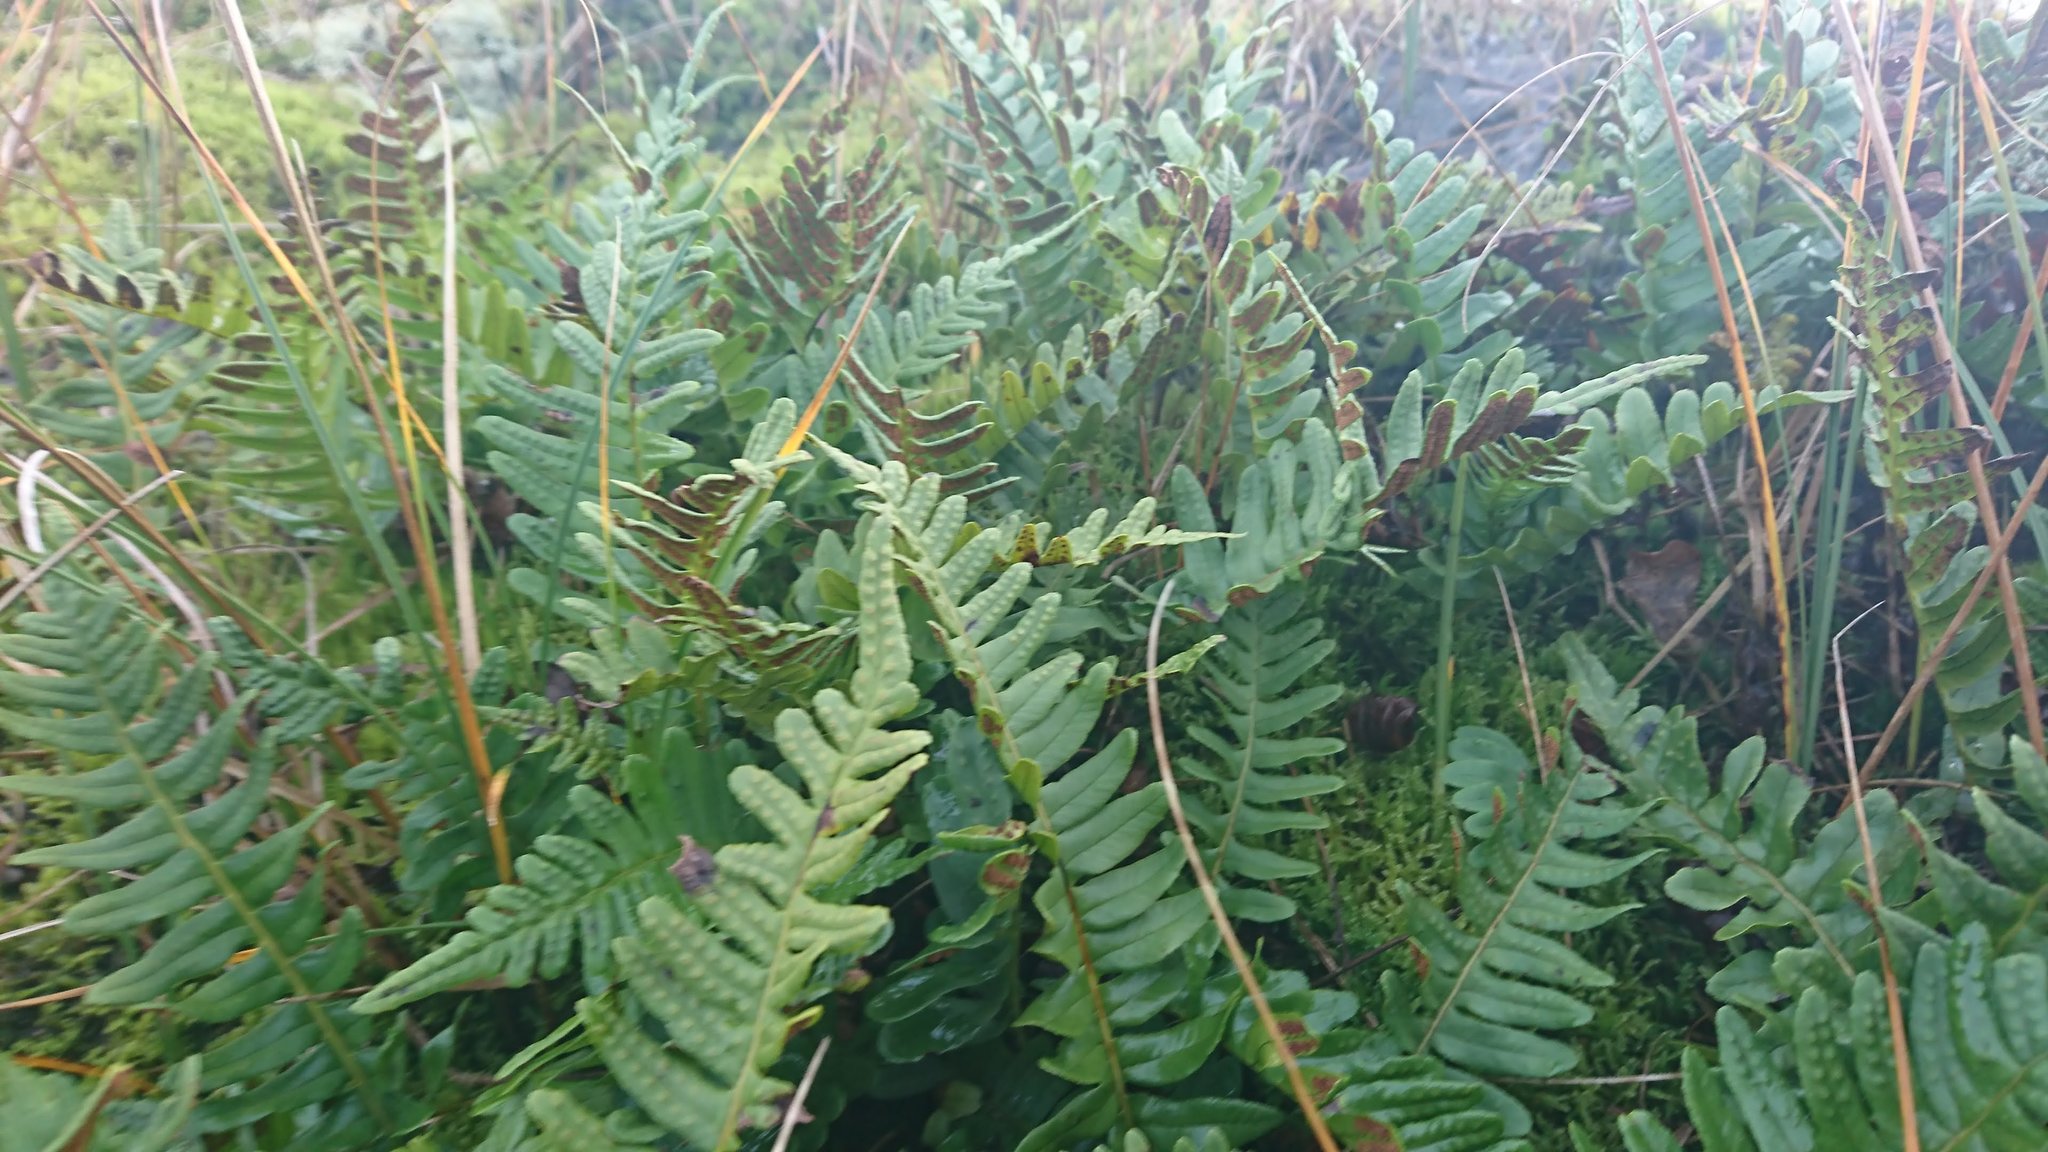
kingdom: Plantae
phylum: Tracheophyta
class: Polypodiopsida
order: Polypodiales
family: Polypodiaceae
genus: Polypodium
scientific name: Polypodium vulgare
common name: Common polypody
